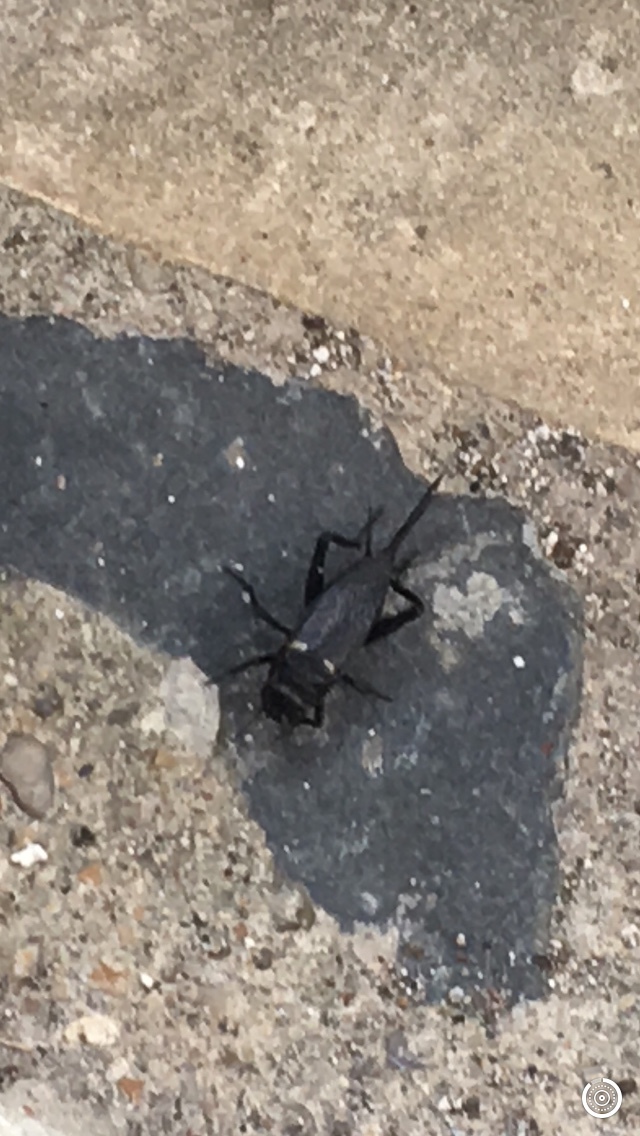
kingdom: Animalia
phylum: Arthropoda
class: Insecta
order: Orthoptera
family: Gryllidae
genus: Gryllus
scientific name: Gryllus bimaculatus
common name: Two-spotted cricket
